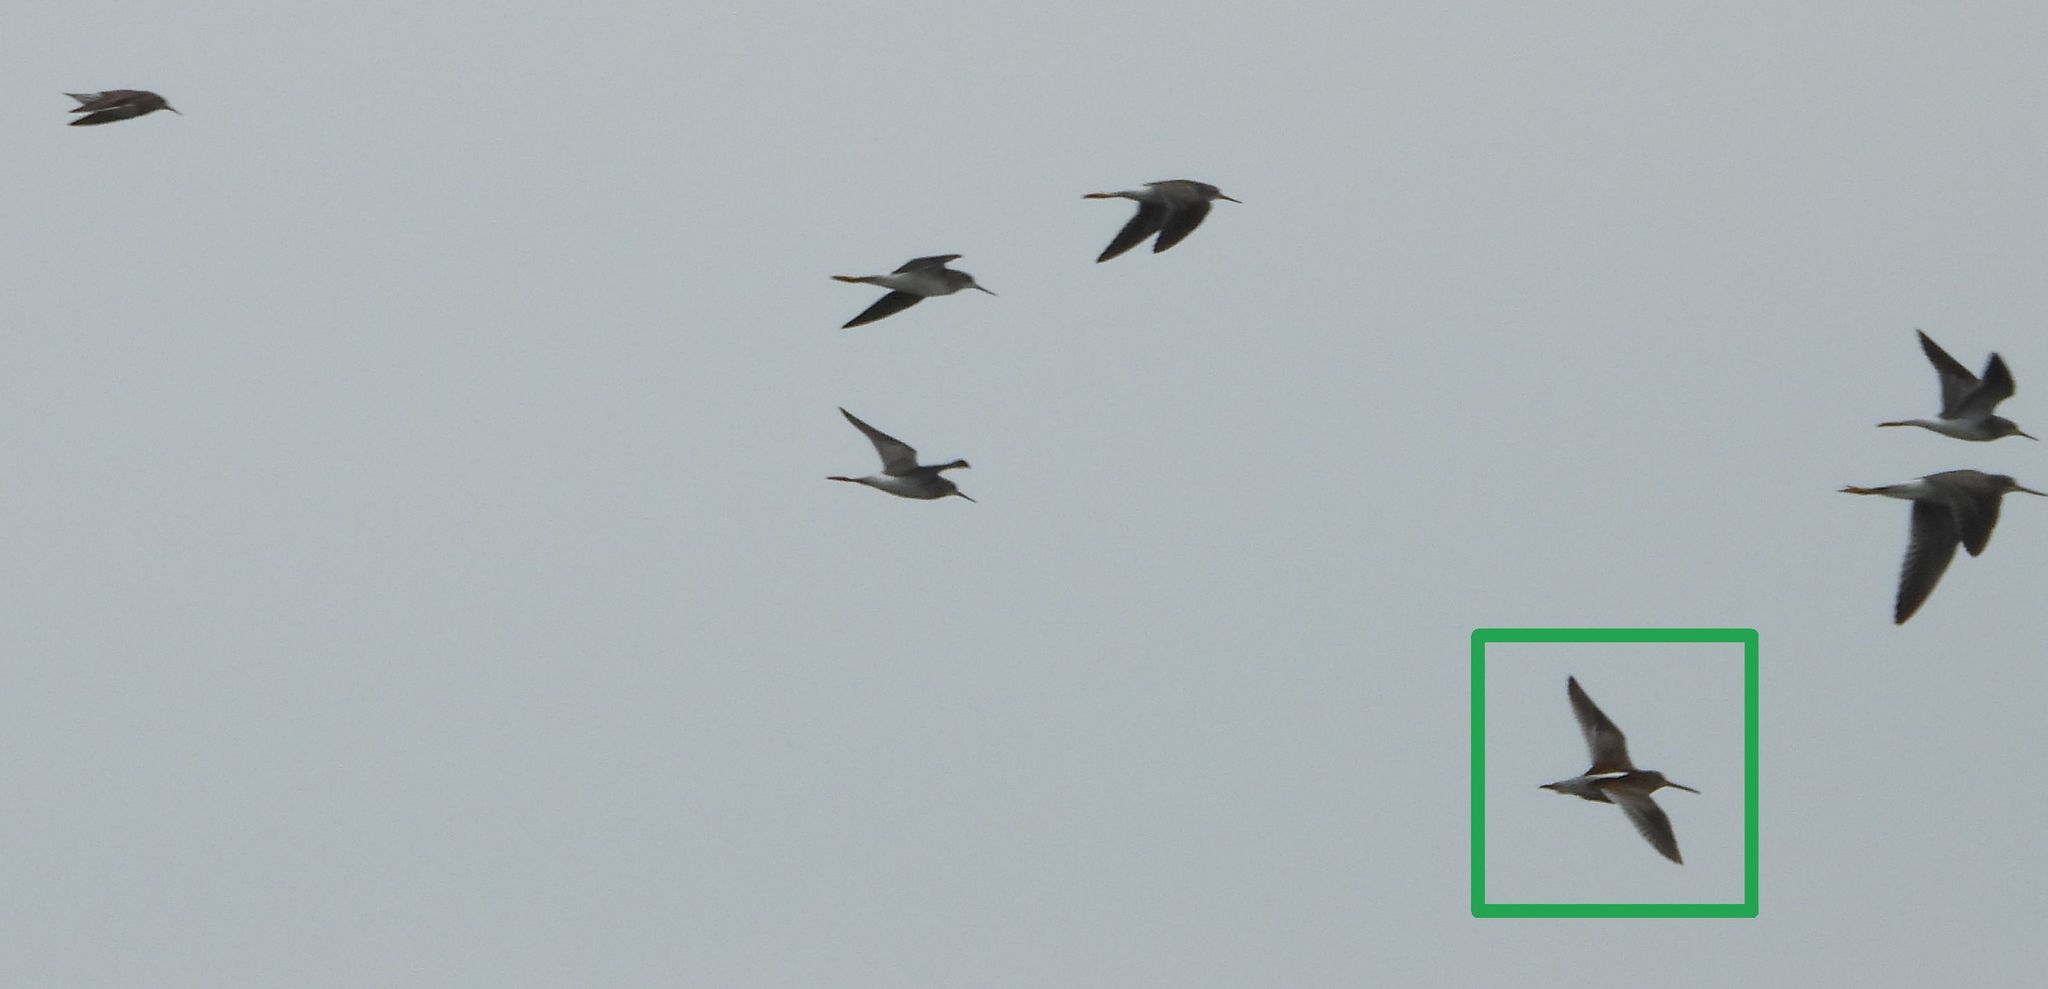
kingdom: Animalia
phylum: Chordata
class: Aves
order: Charadriiformes
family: Scolopacidae
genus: Limnodromus
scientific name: Limnodromus
